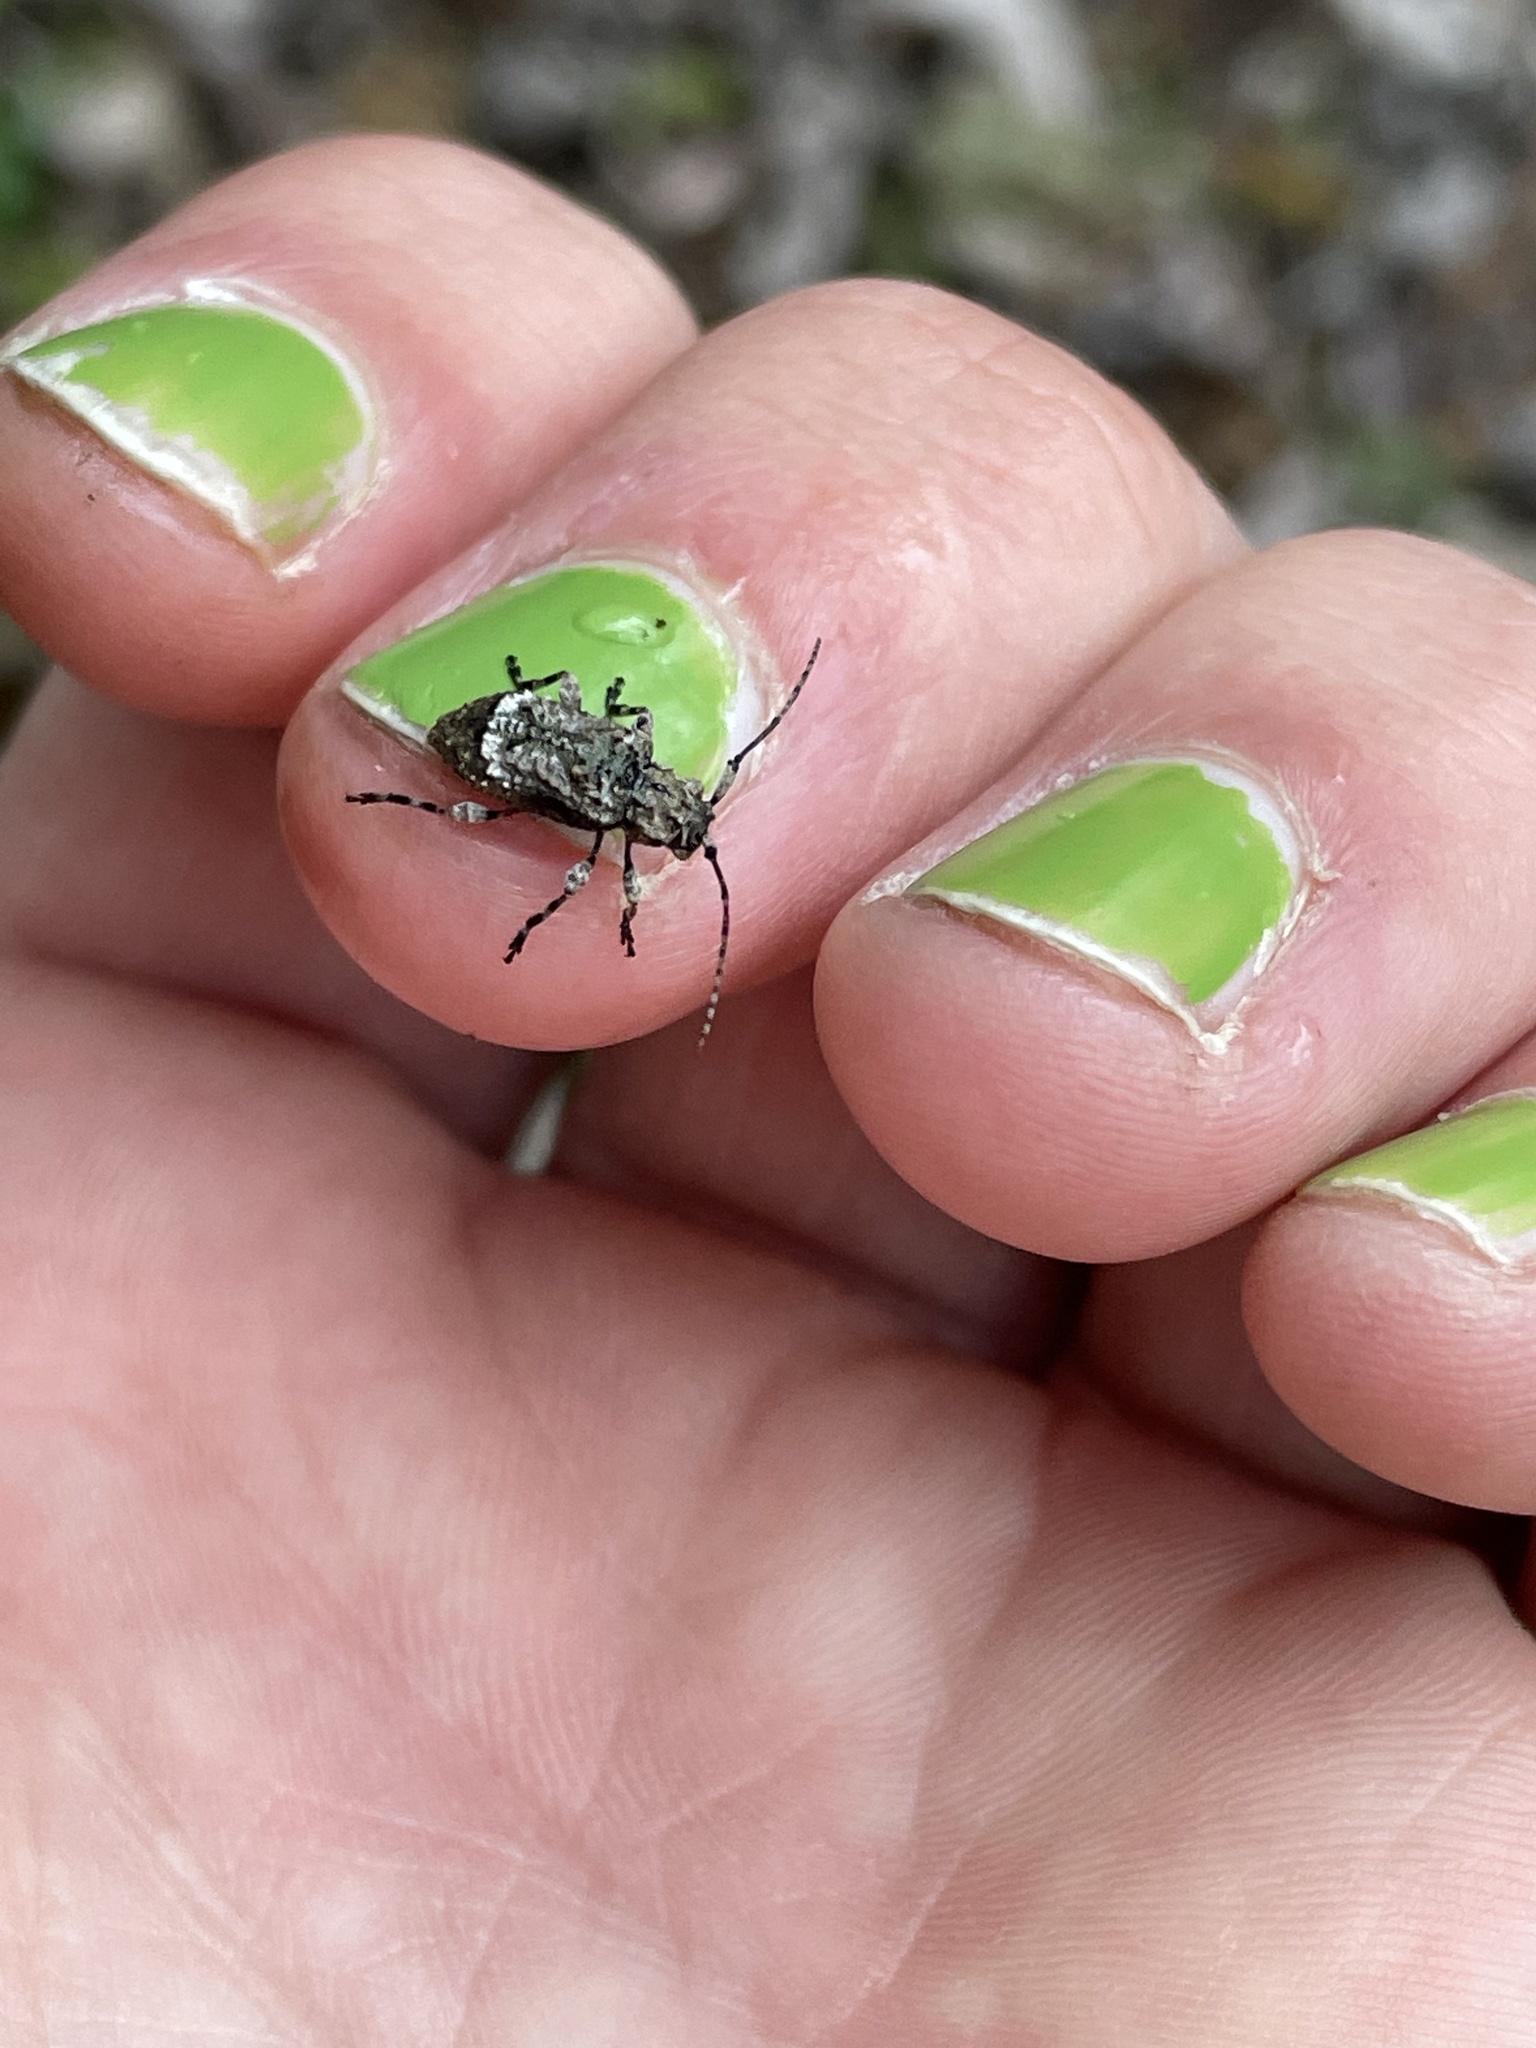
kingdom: Animalia
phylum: Arthropoda
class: Insecta
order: Coleoptera
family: Cerambycidae
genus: Leptostylus
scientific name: Leptostylus transversus
